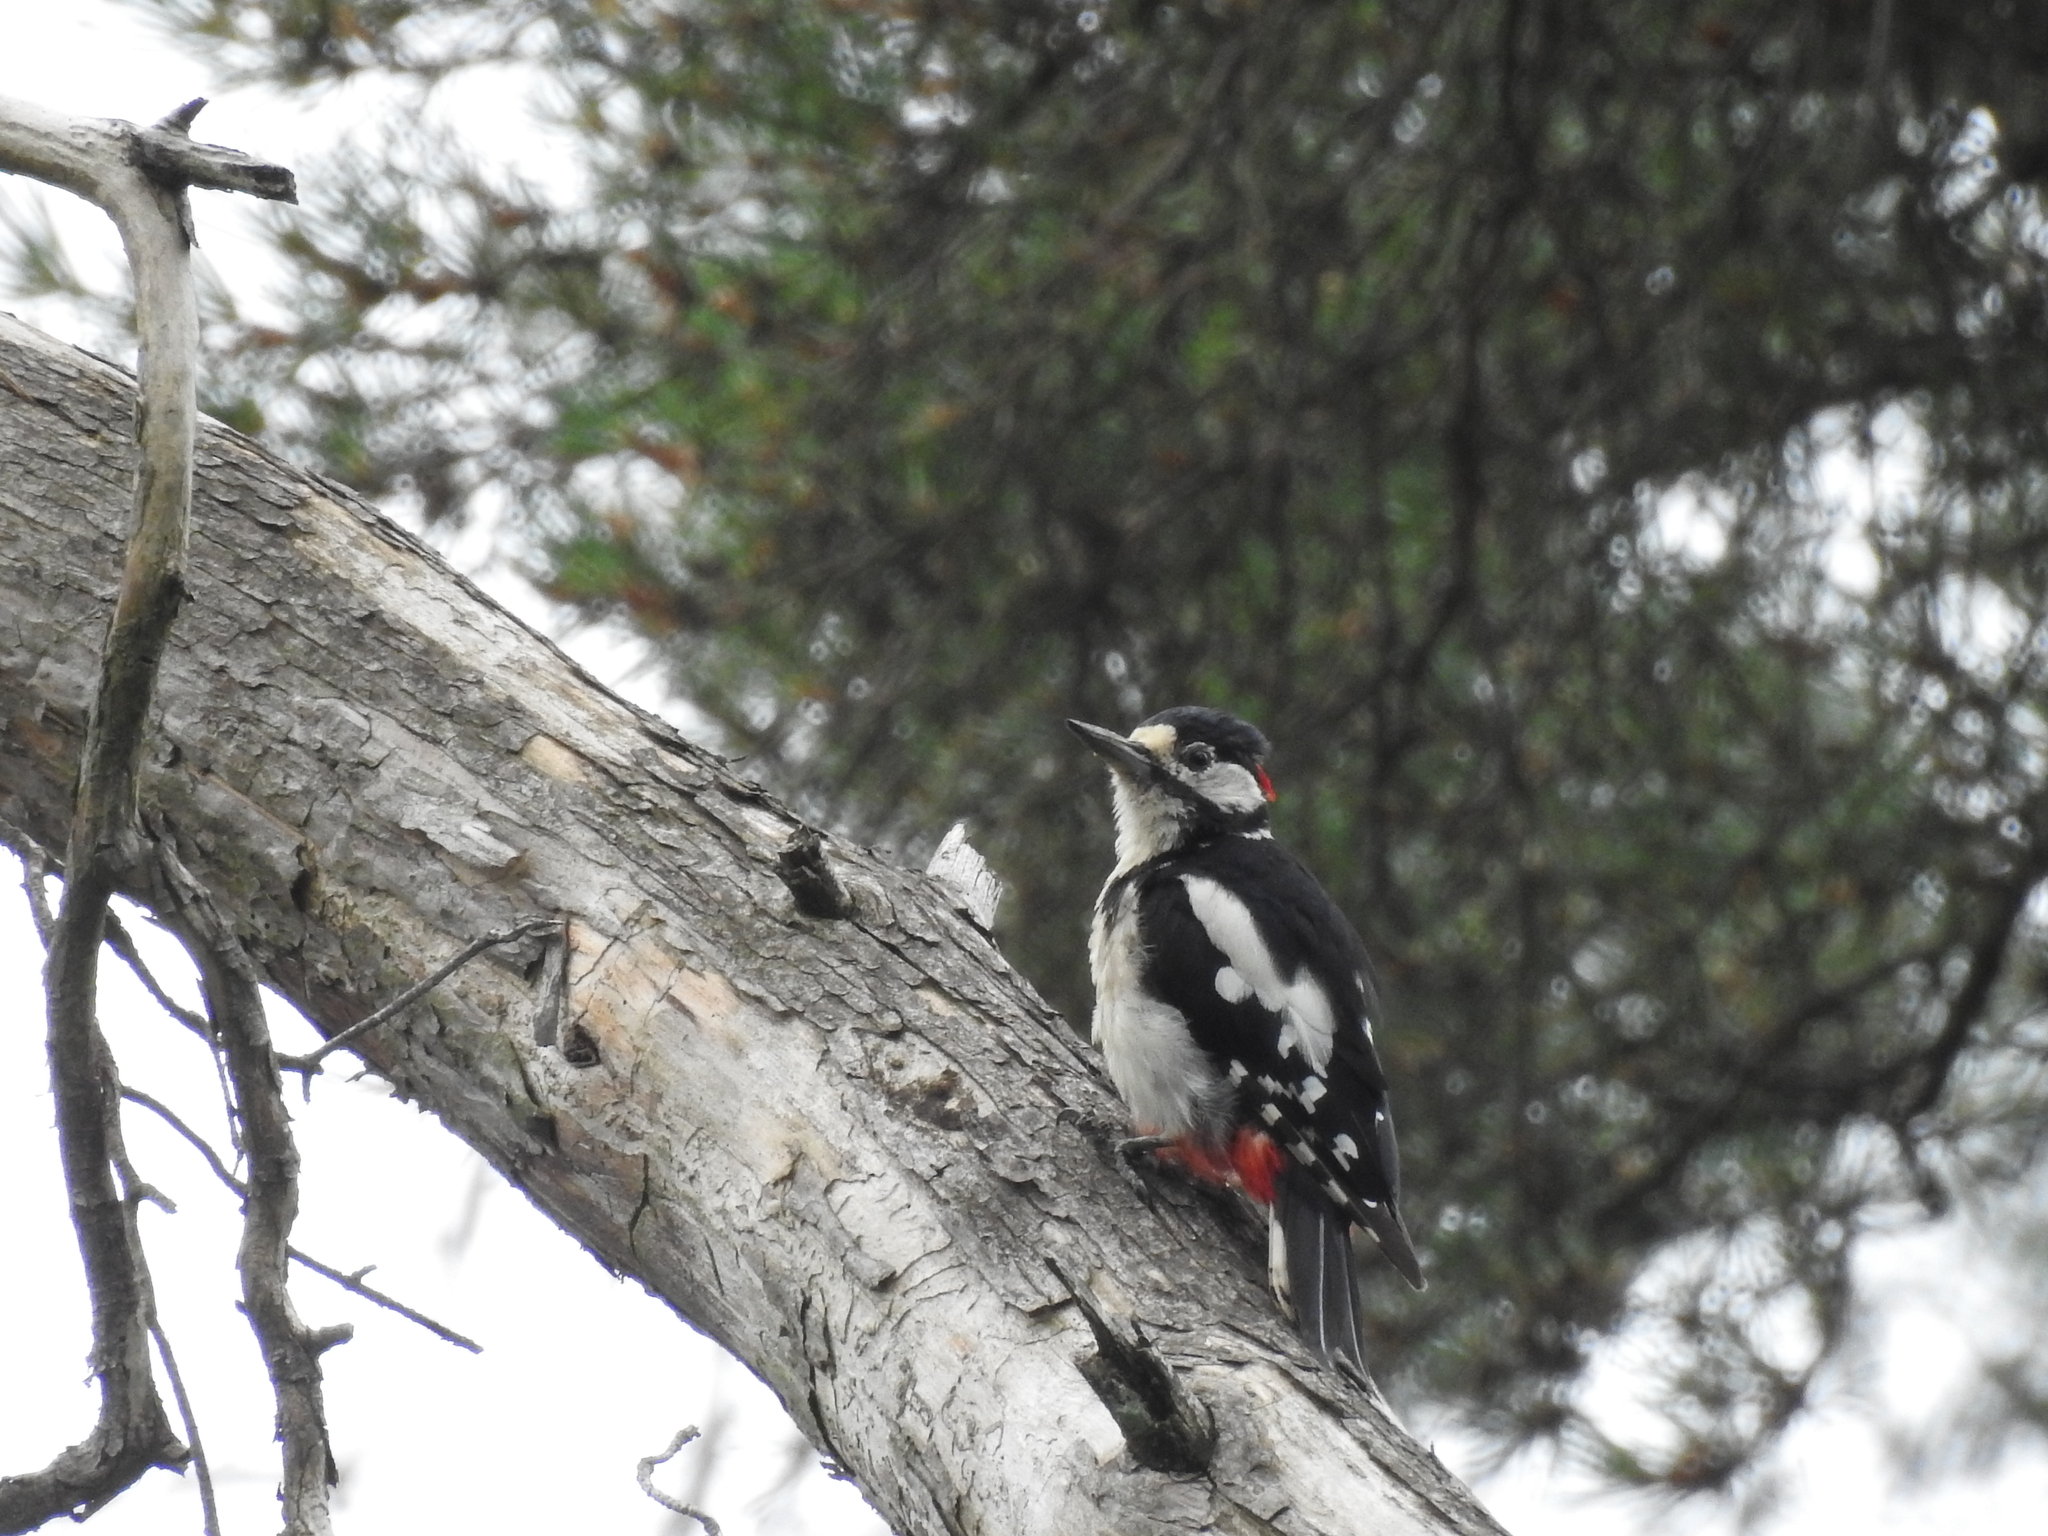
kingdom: Animalia
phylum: Chordata
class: Aves
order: Piciformes
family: Picidae
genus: Dendrocopos
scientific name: Dendrocopos major
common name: Great spotted woodpecker
